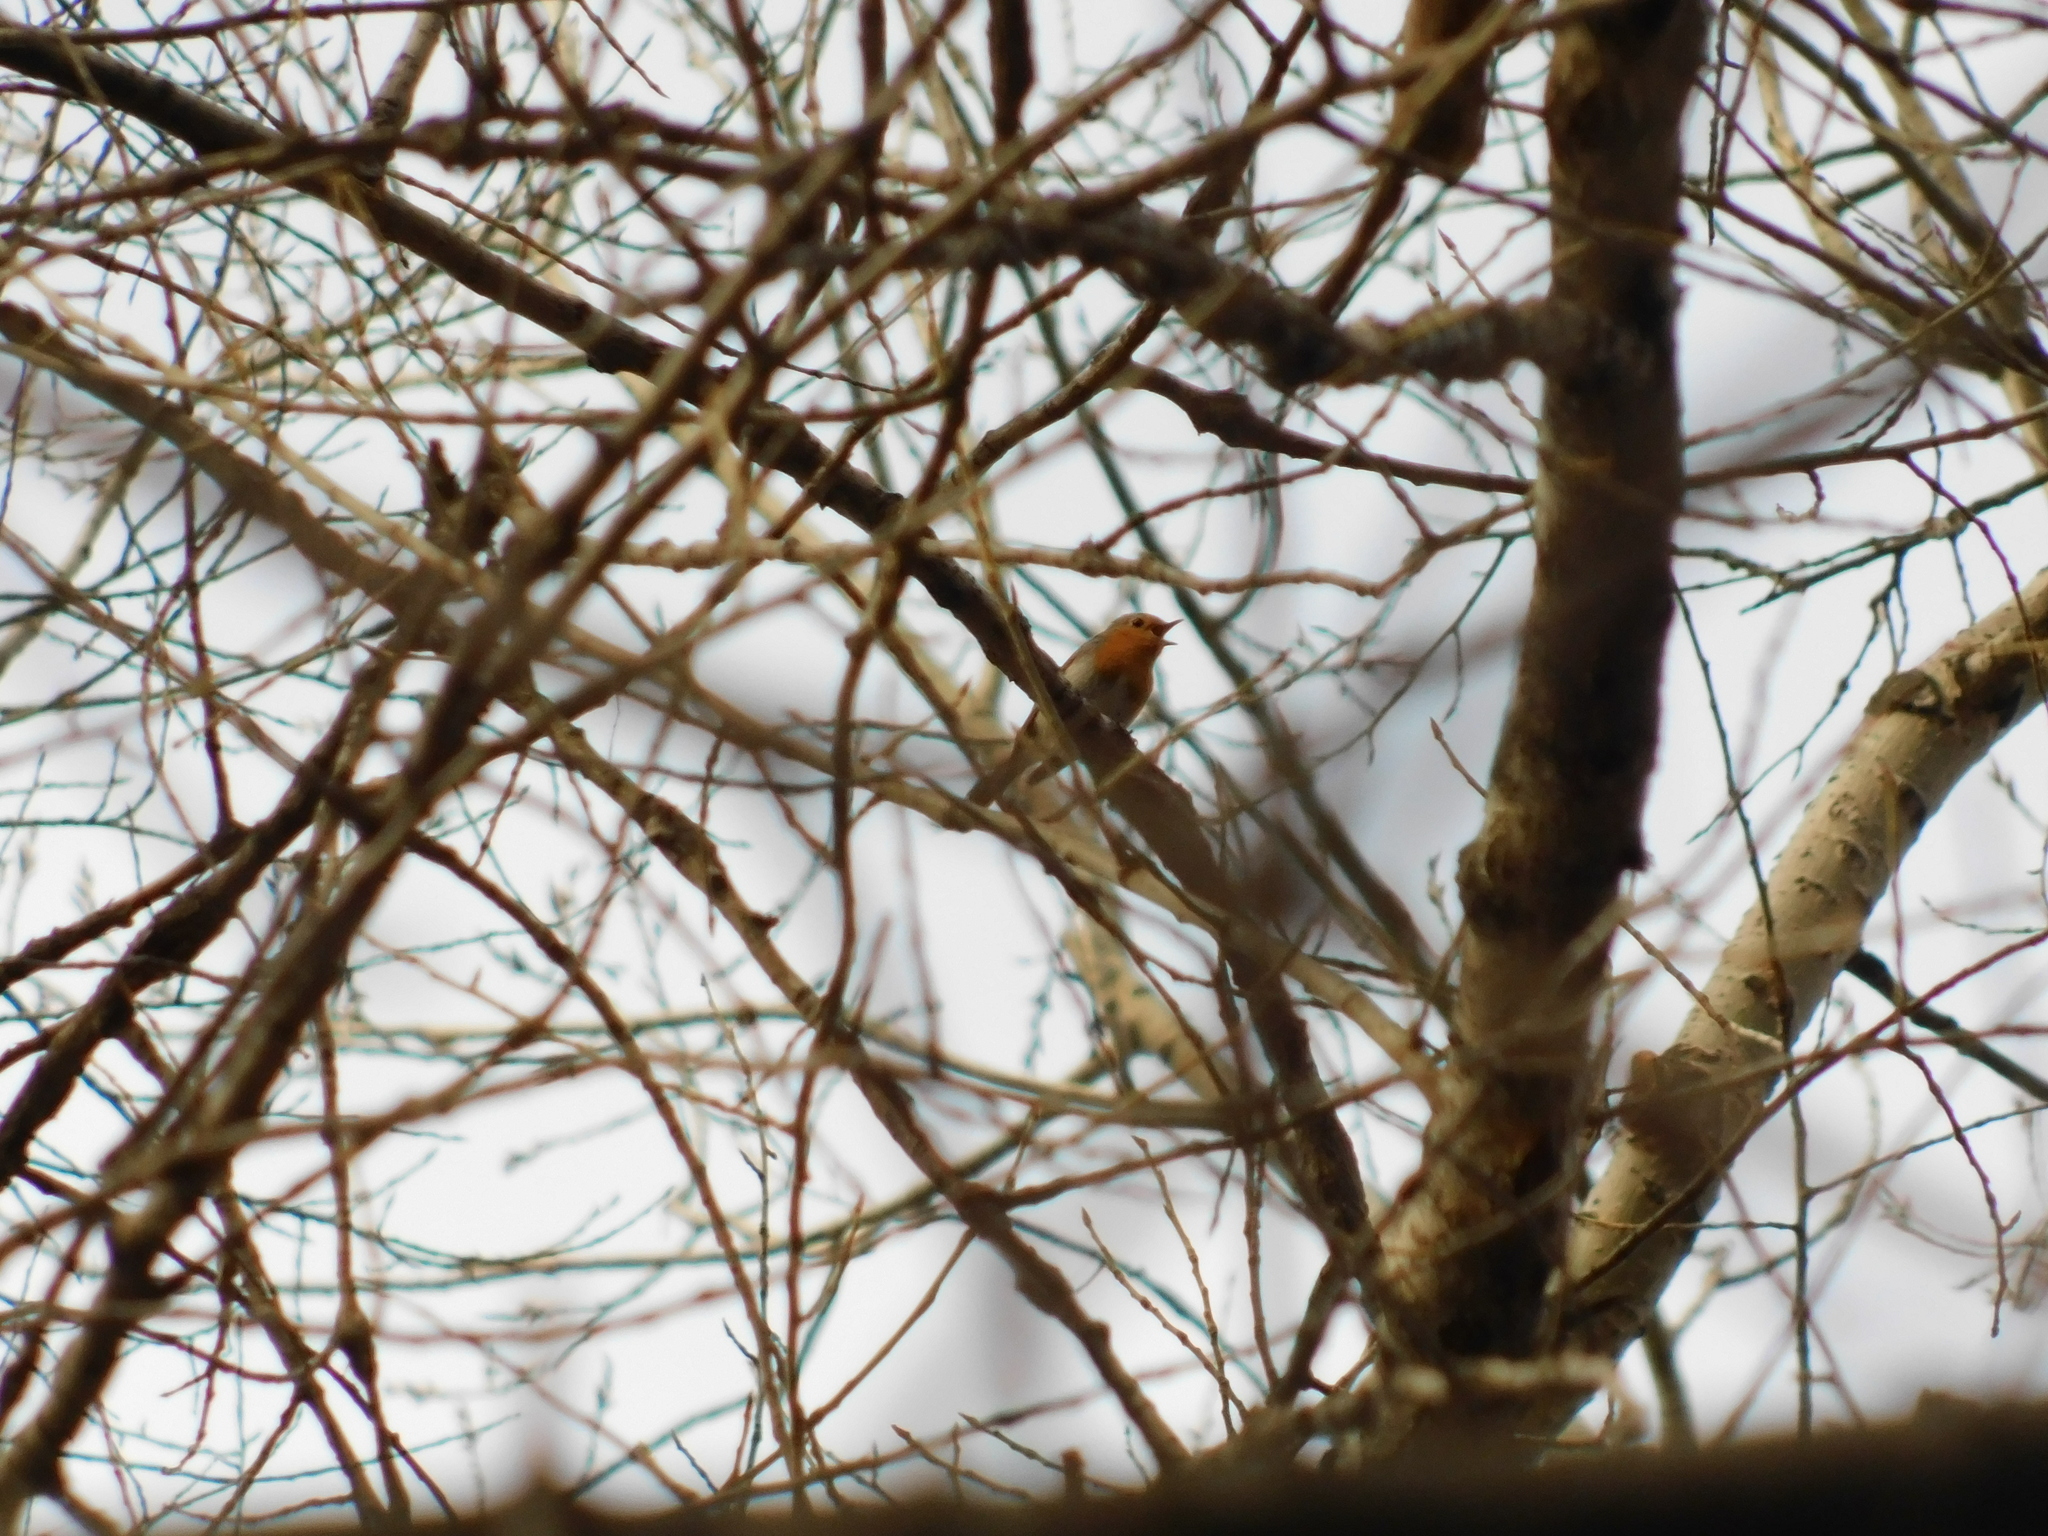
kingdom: Animalia
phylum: Chordata
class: Aves
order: Passeriformes
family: Muscicapidae
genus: Erithacus
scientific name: Erithacus rubecula
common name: European robin
